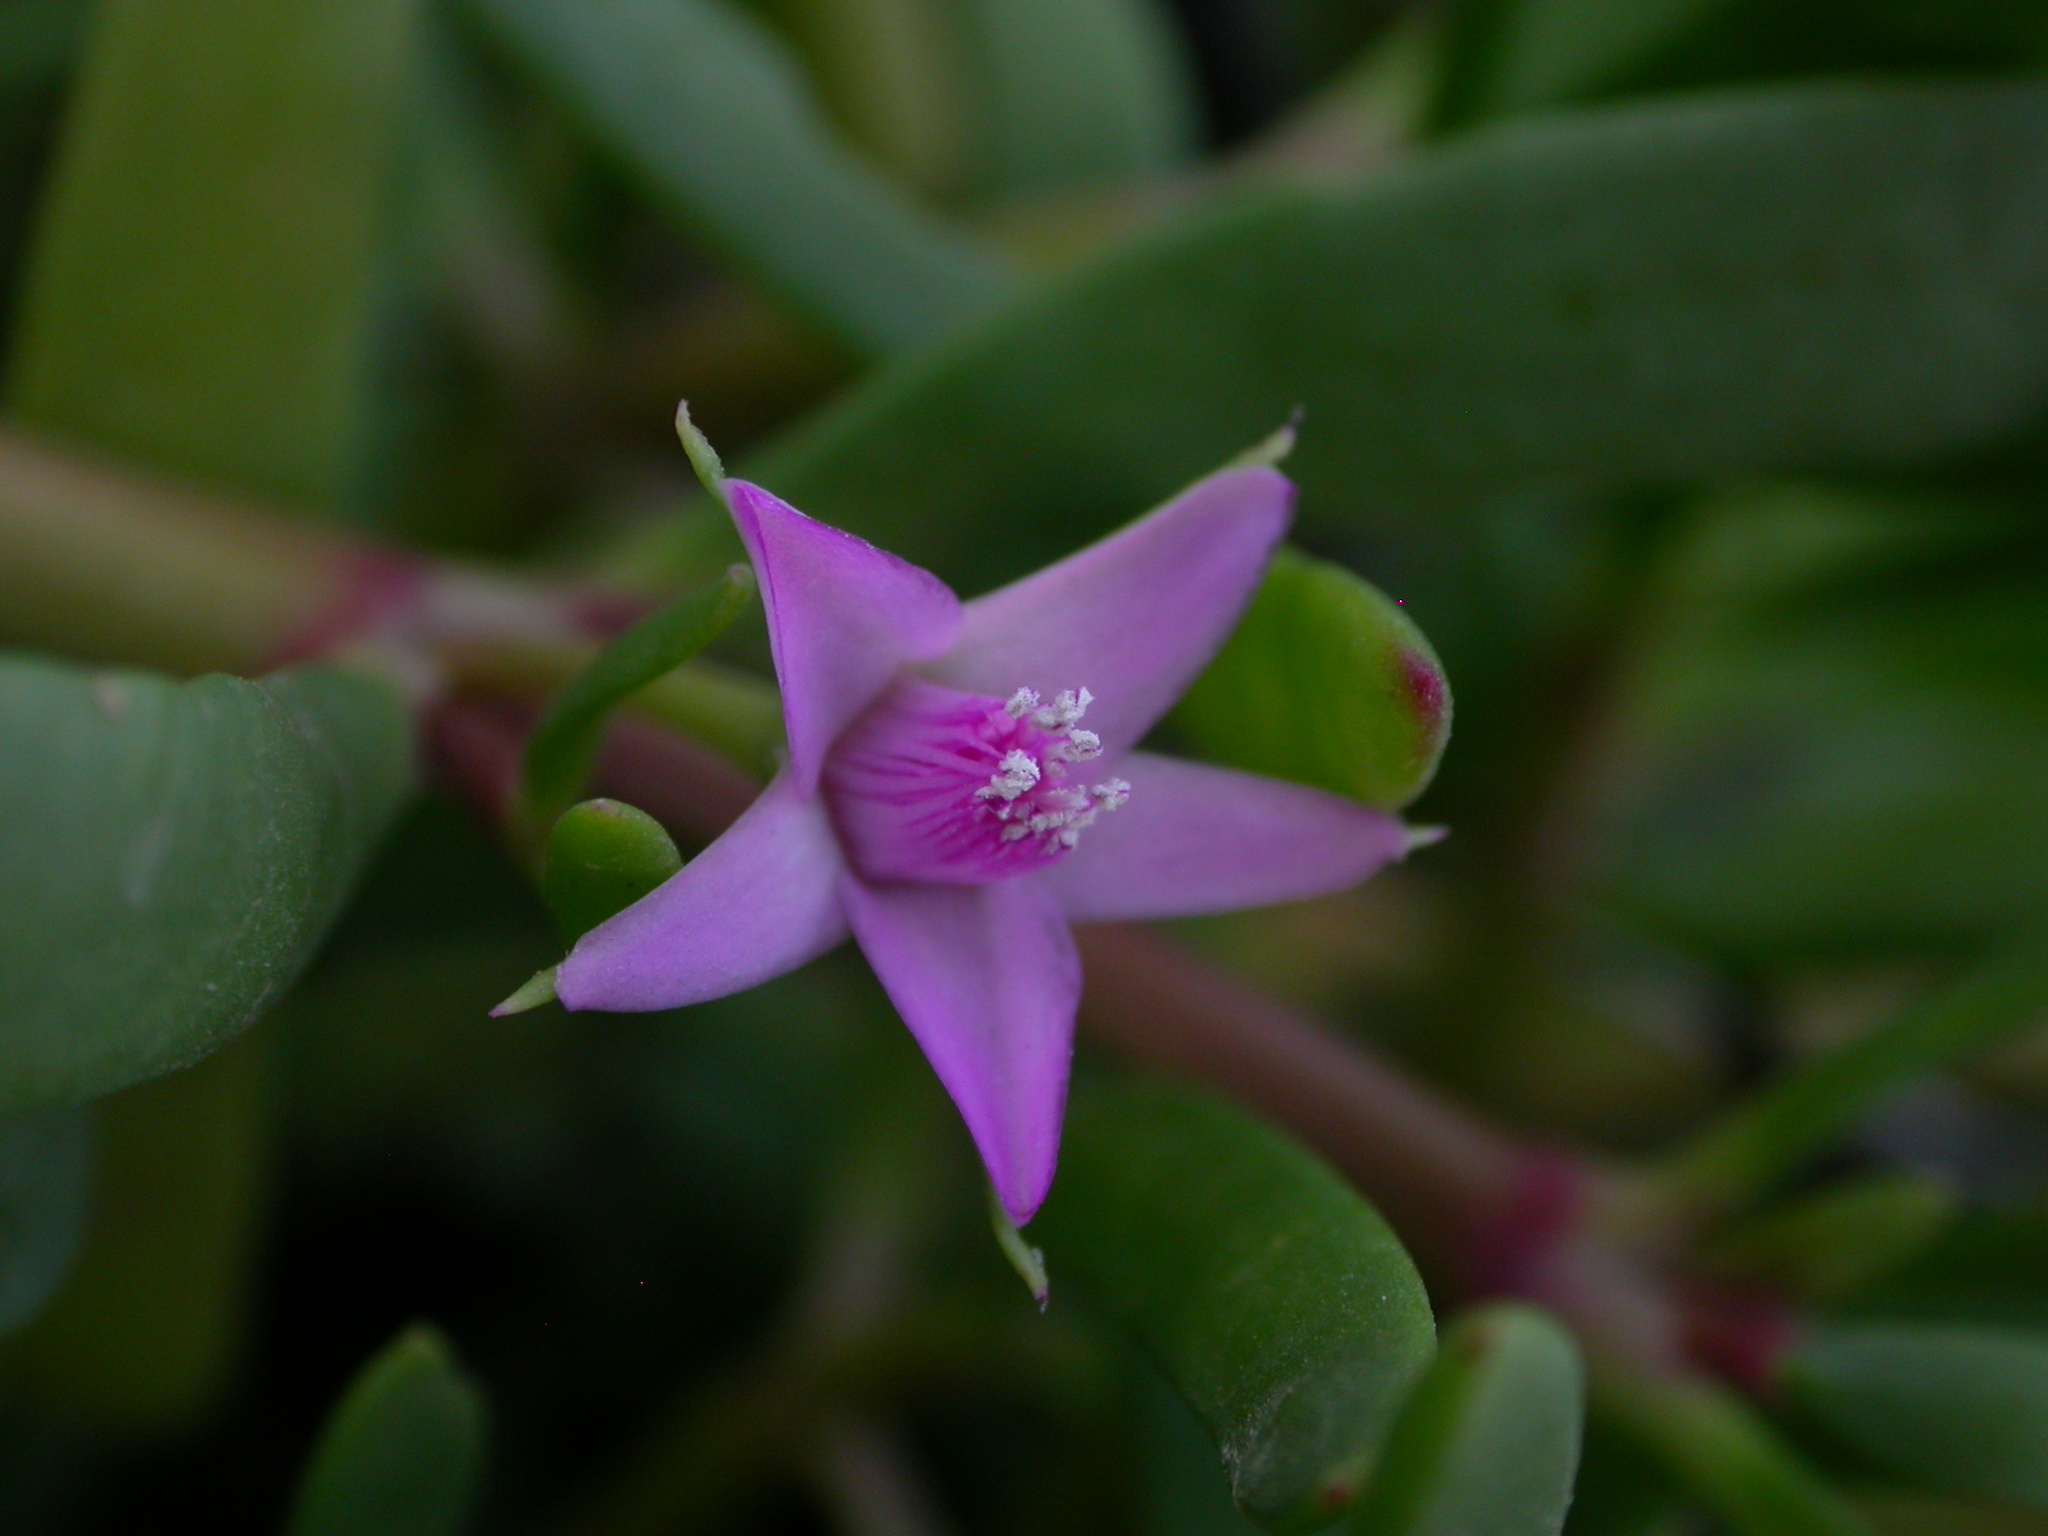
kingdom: Plantae
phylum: Tracheophyta
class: Magnoliopsida
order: Caryophyllales
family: Aizoaceae
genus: Sesuvium
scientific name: Sesuvium portulacastrum
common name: Sea-purslane
